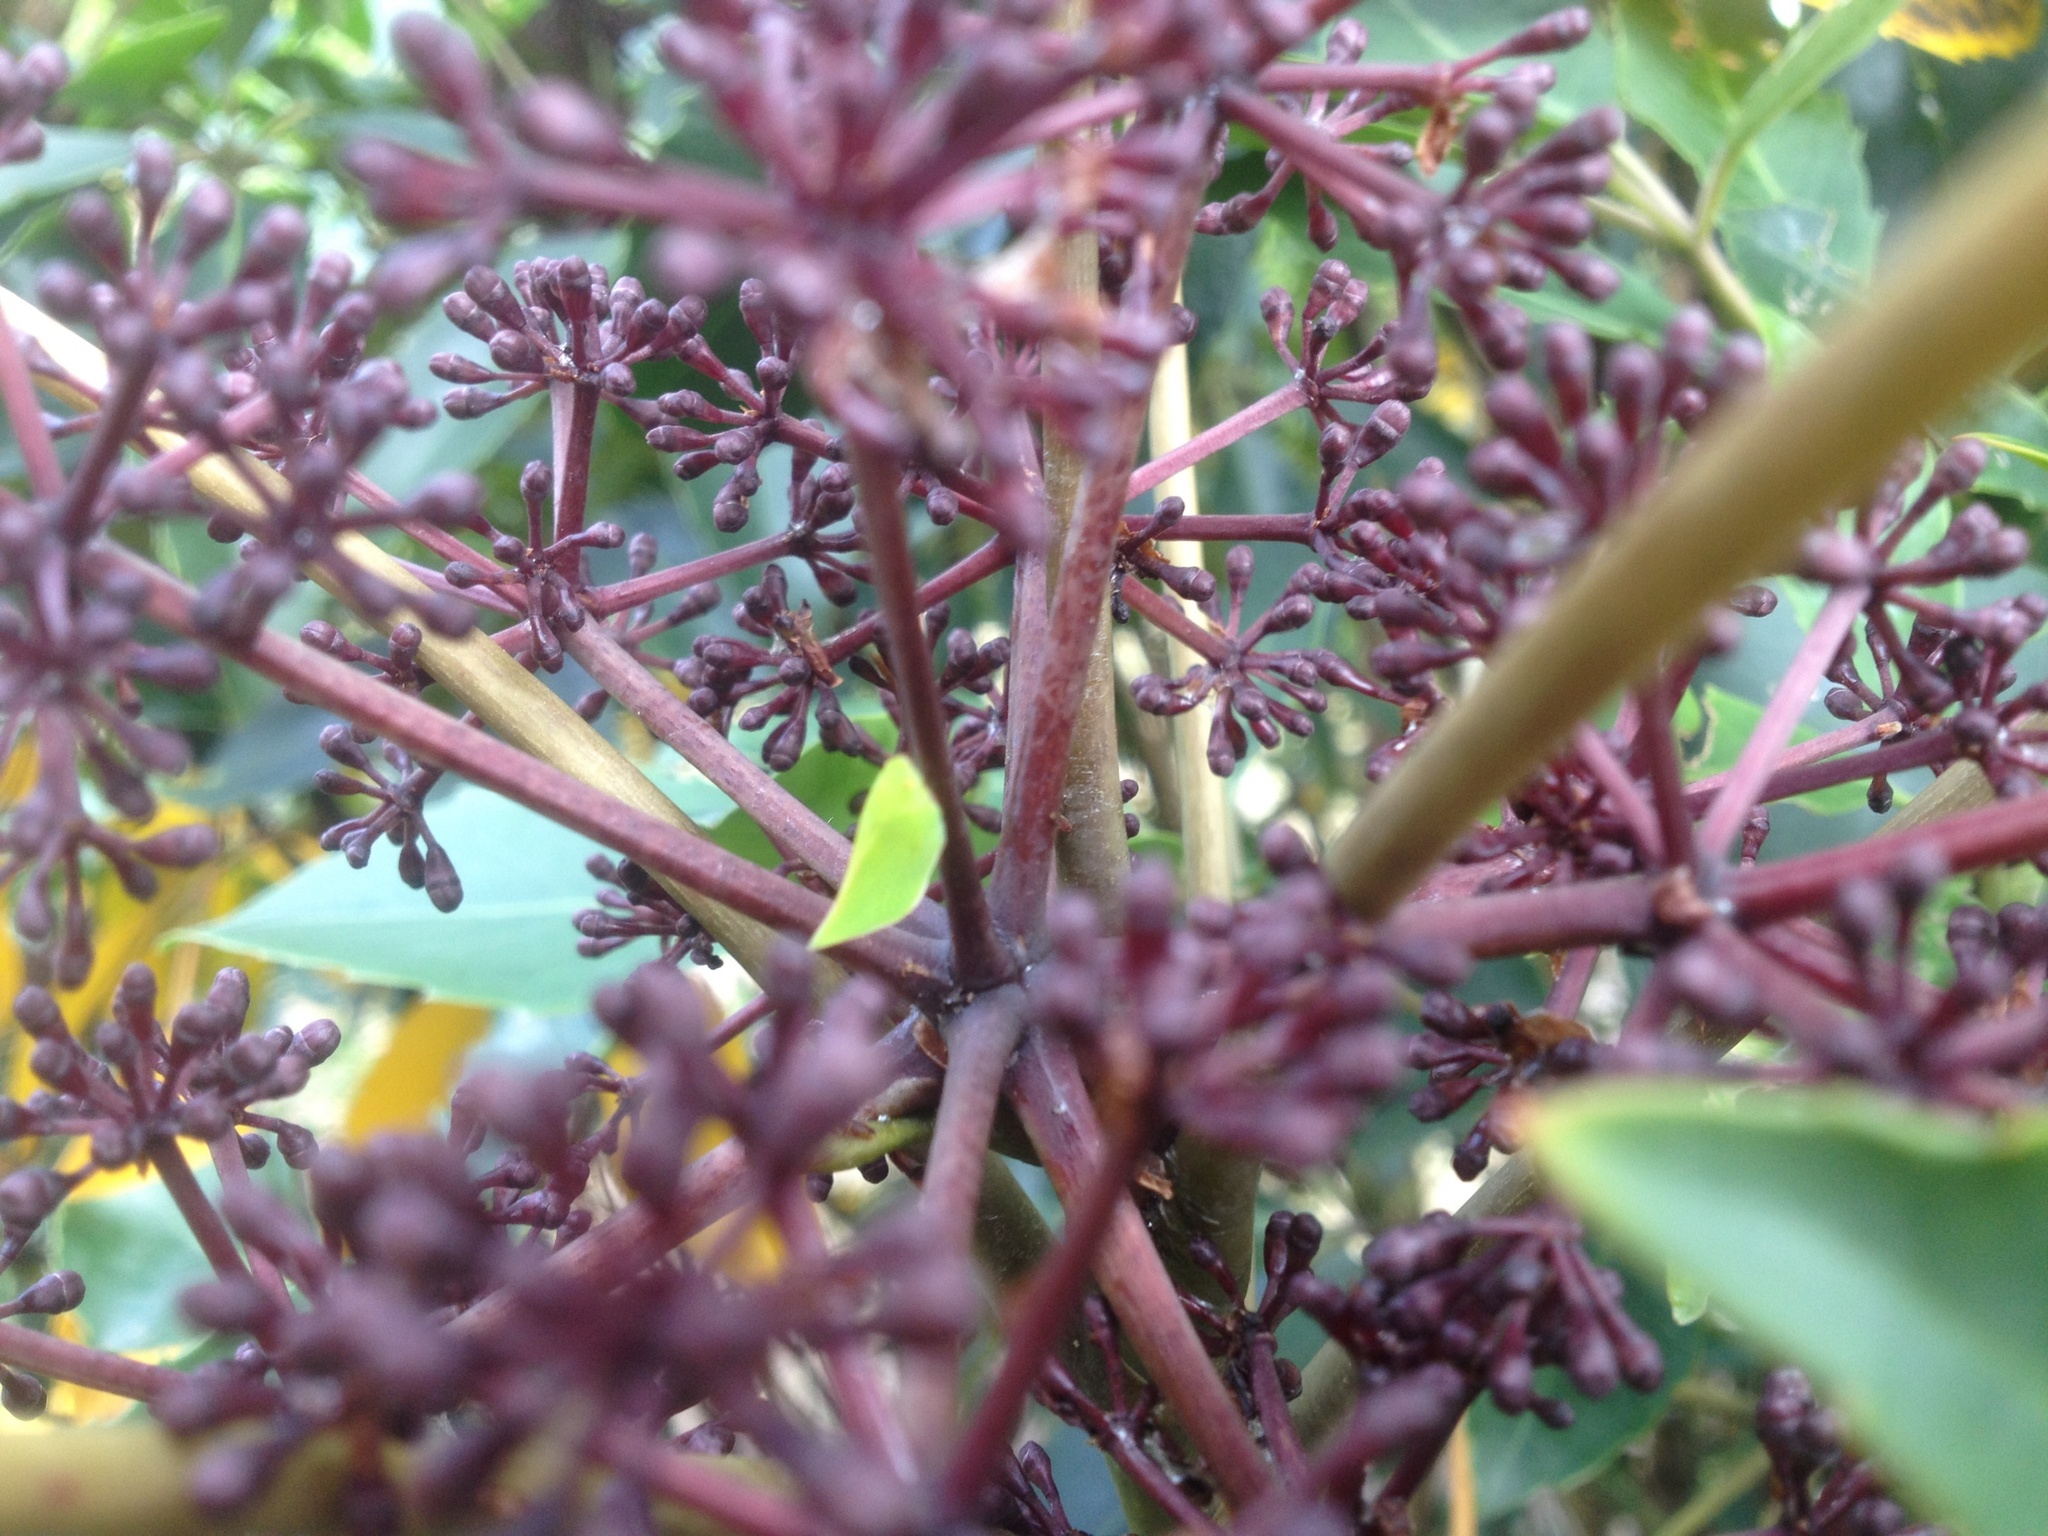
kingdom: Animalia
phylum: Arthropoda
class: Insecta
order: Hemiptera
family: Flatidae
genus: Siphanta
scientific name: Siphanta acuta
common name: Torpedo bug
